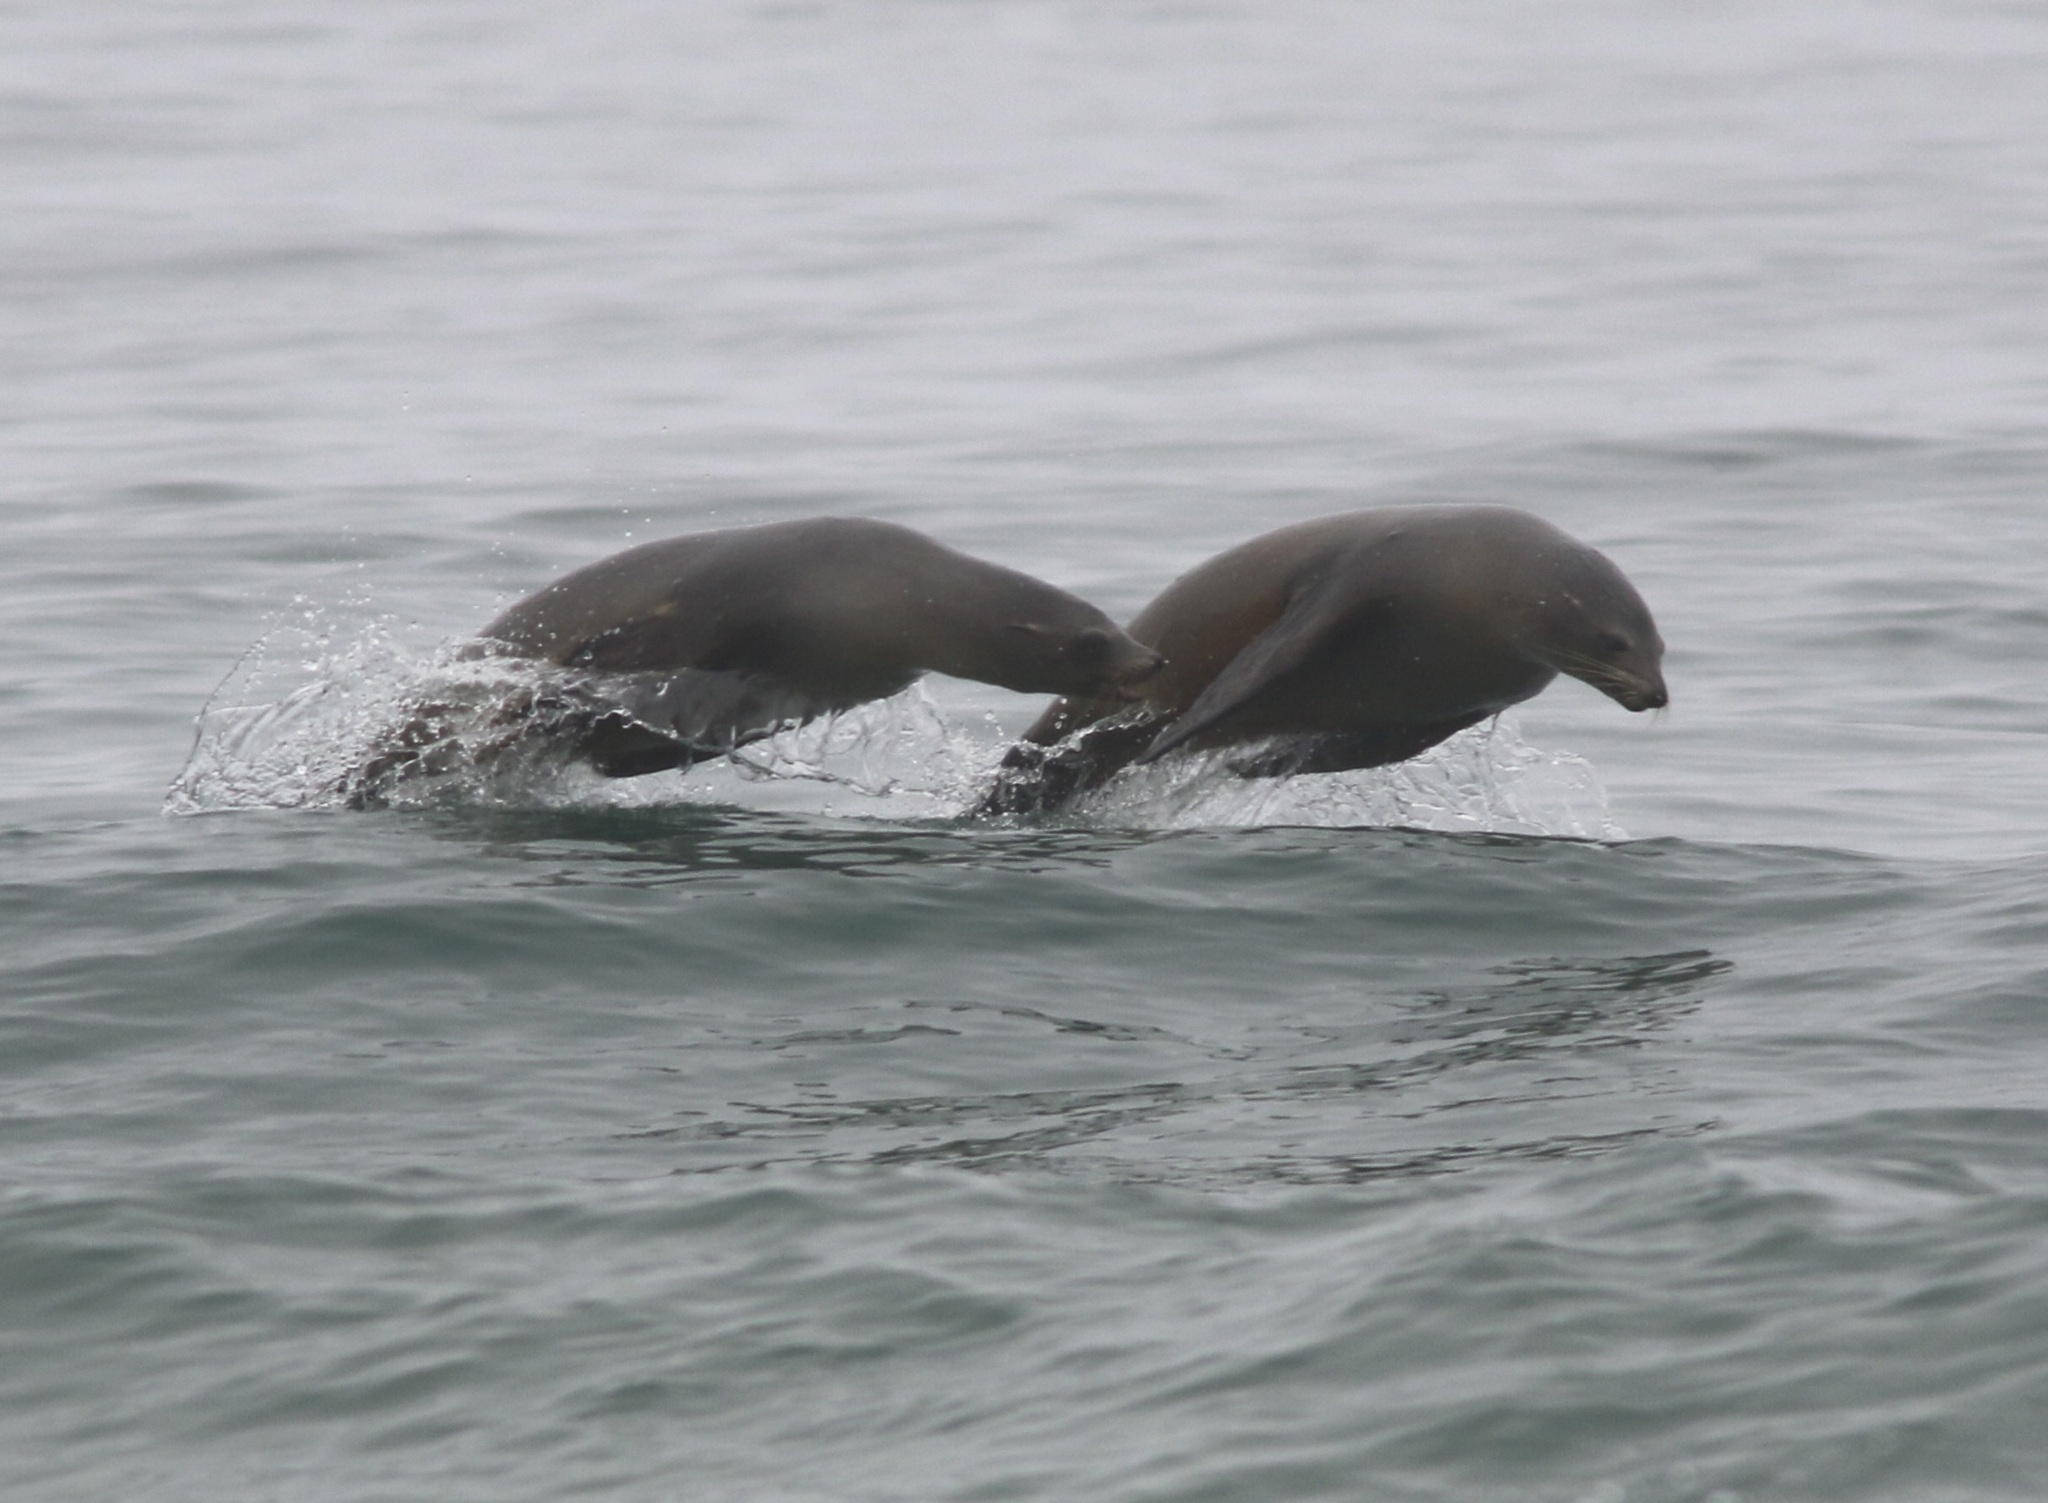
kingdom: Animalia
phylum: Chordata
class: Mammalia
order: Carnivora
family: Otariidae
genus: Zalophus
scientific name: Zalophus californianus
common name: California sea lion
